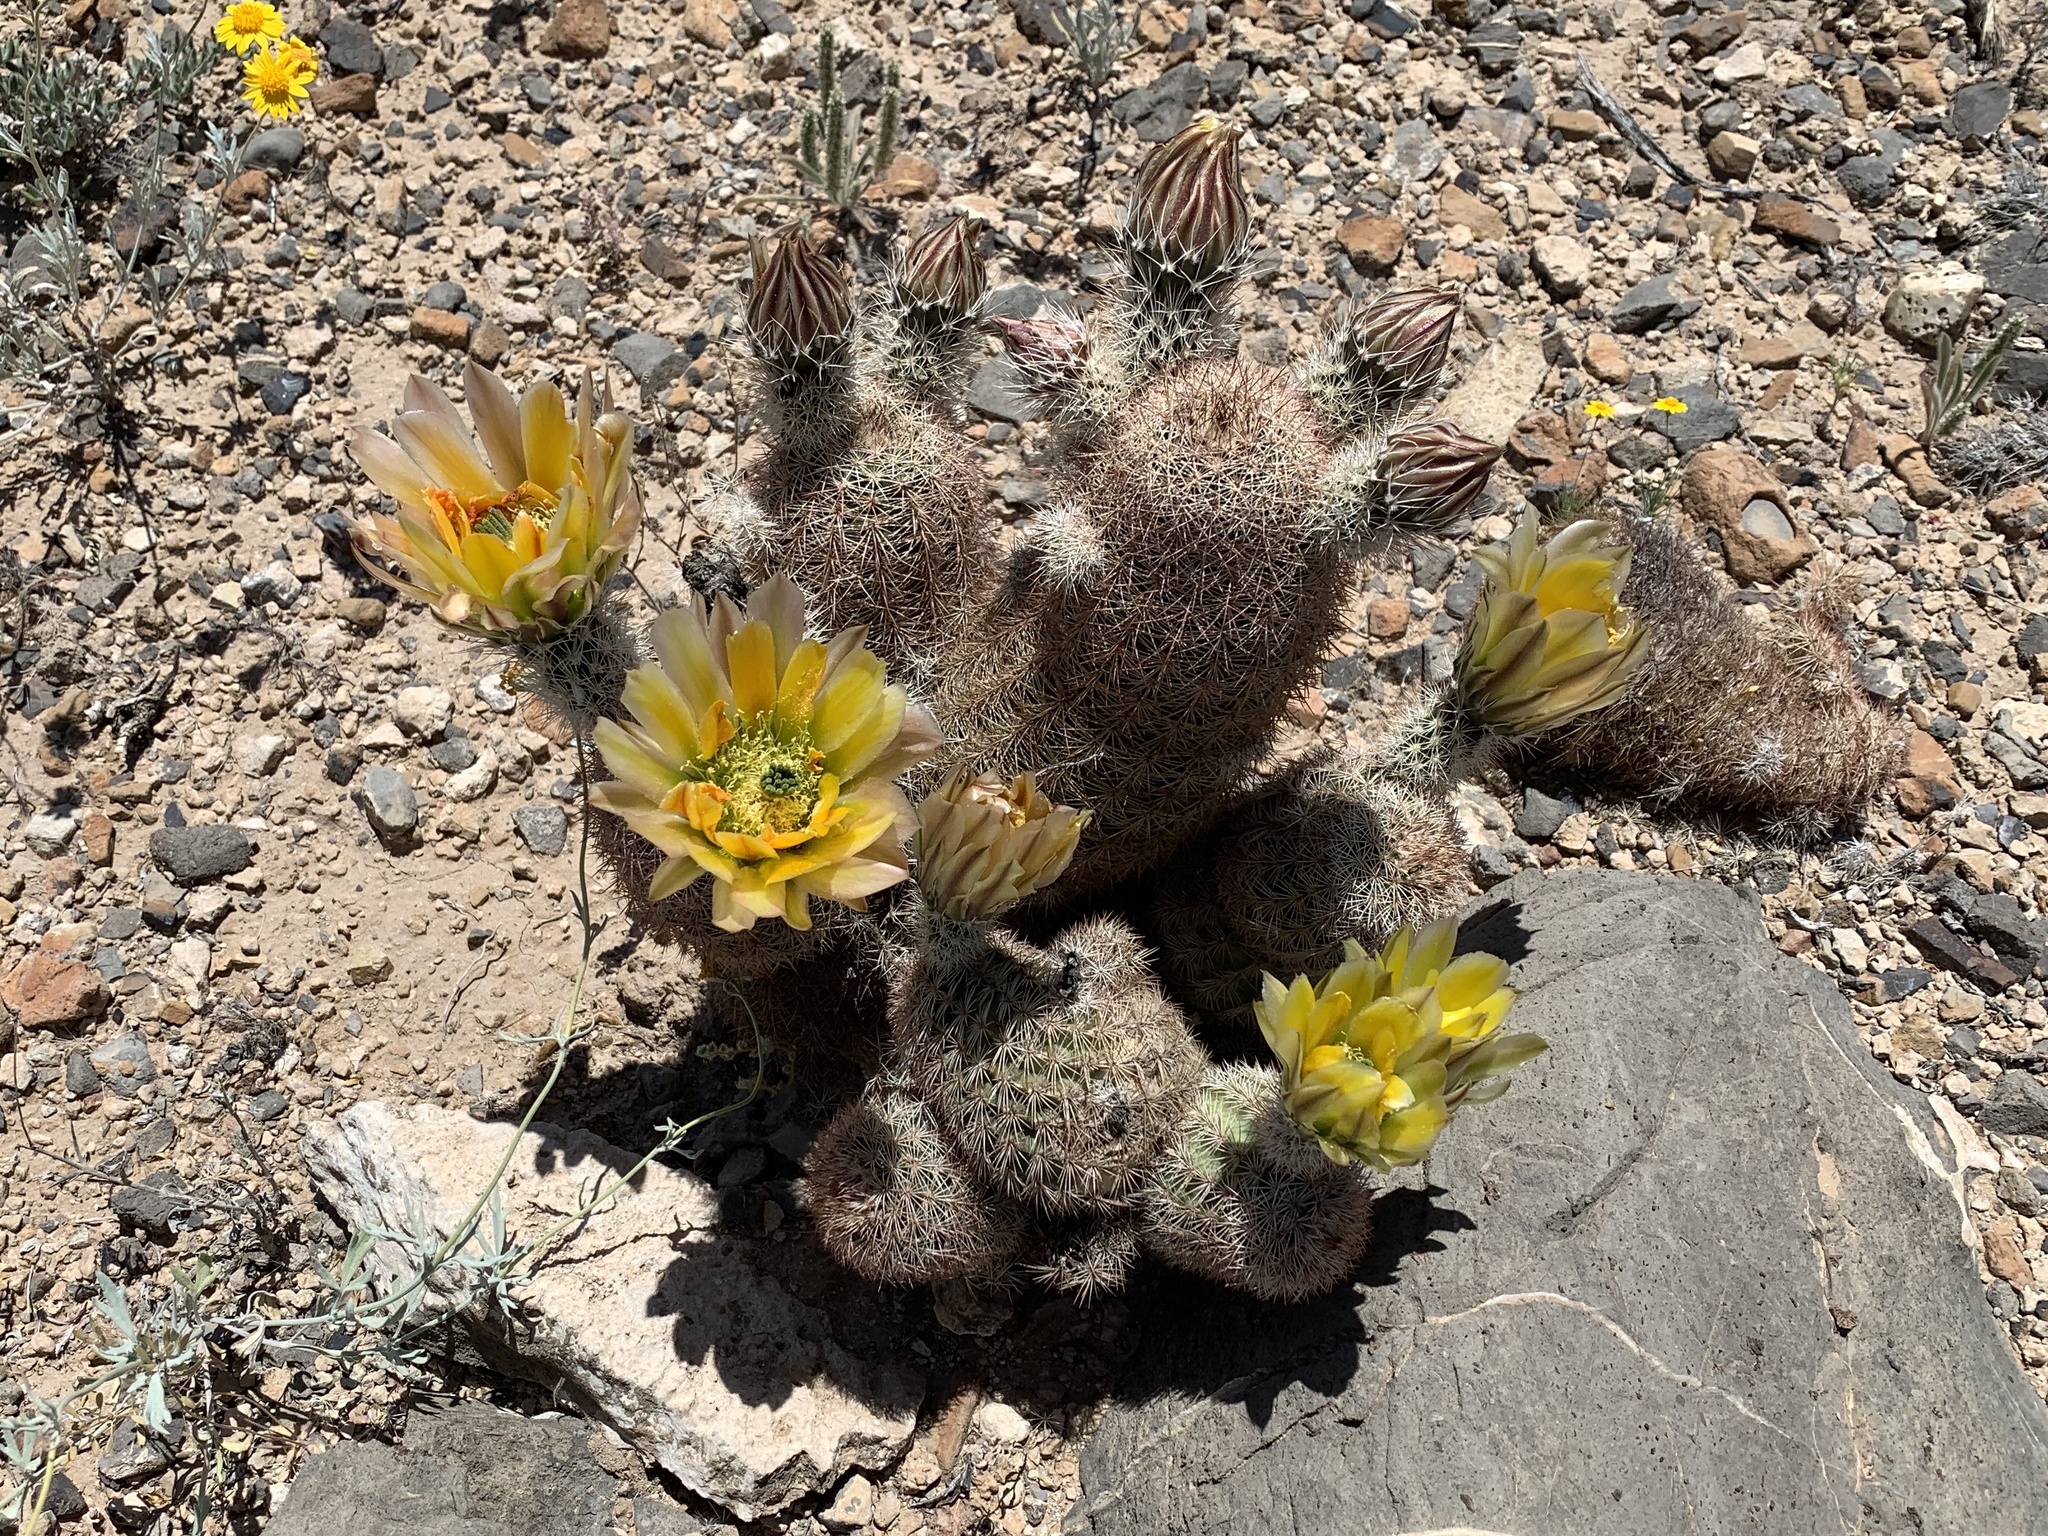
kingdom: Plantae
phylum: Tracheophyta
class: Magnoliopsida
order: Caryophyllales
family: Cactaceae
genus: Echinocereus
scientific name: Echinocereus dasyacanthus
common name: Spiny hedgehog cactus
